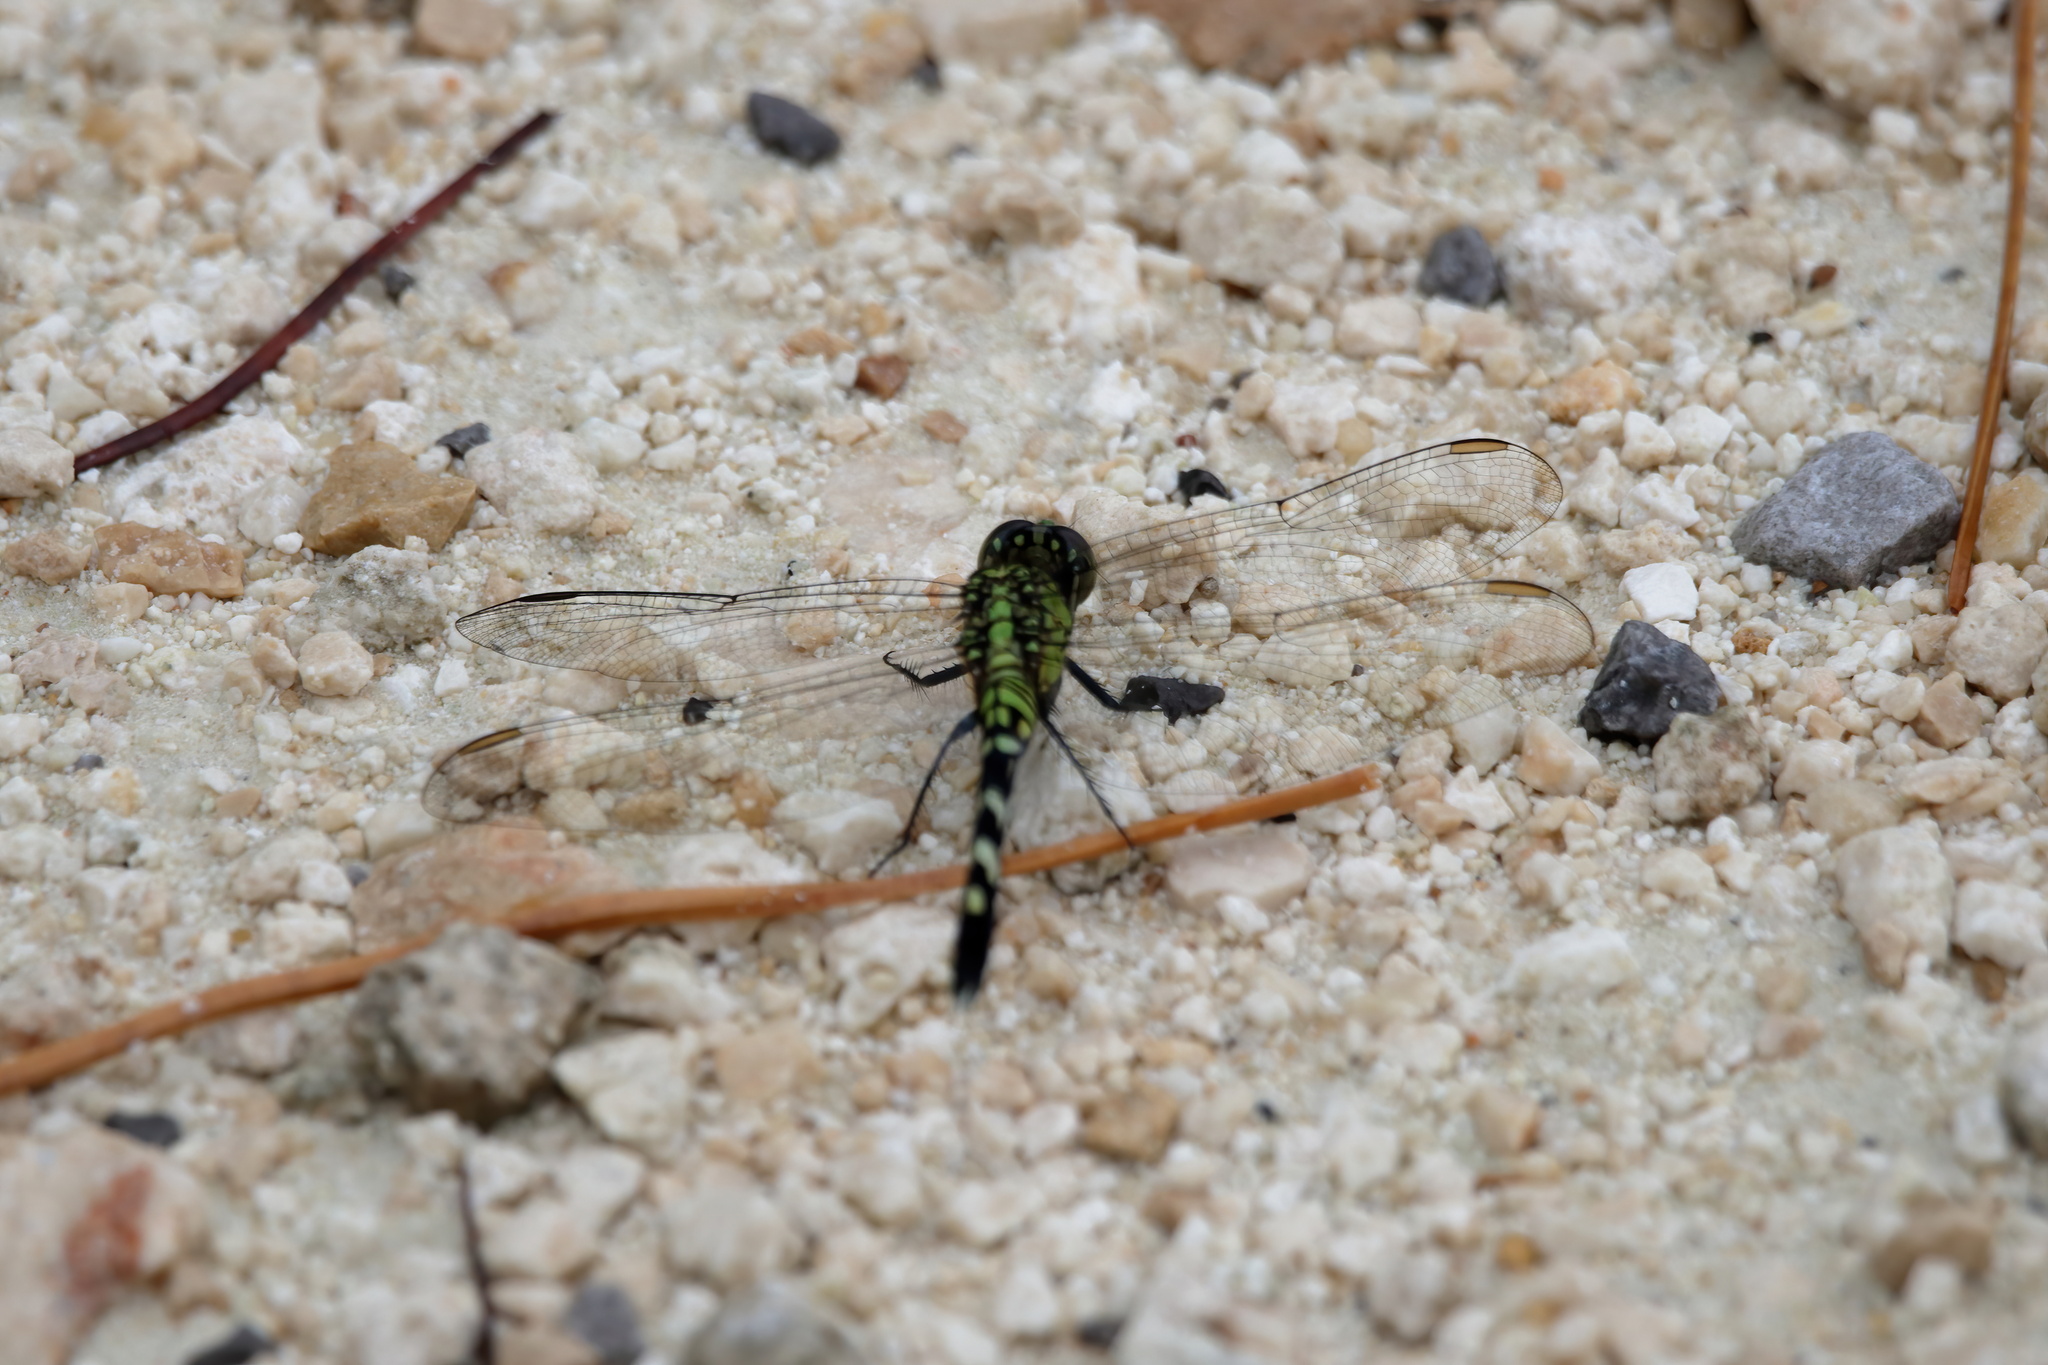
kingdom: Animalia
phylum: Arthropoda
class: Insecta
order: Odonata
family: Libellulidae
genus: Erythemis
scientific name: Erythemis simplicicollis
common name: Eastern pondhawk
